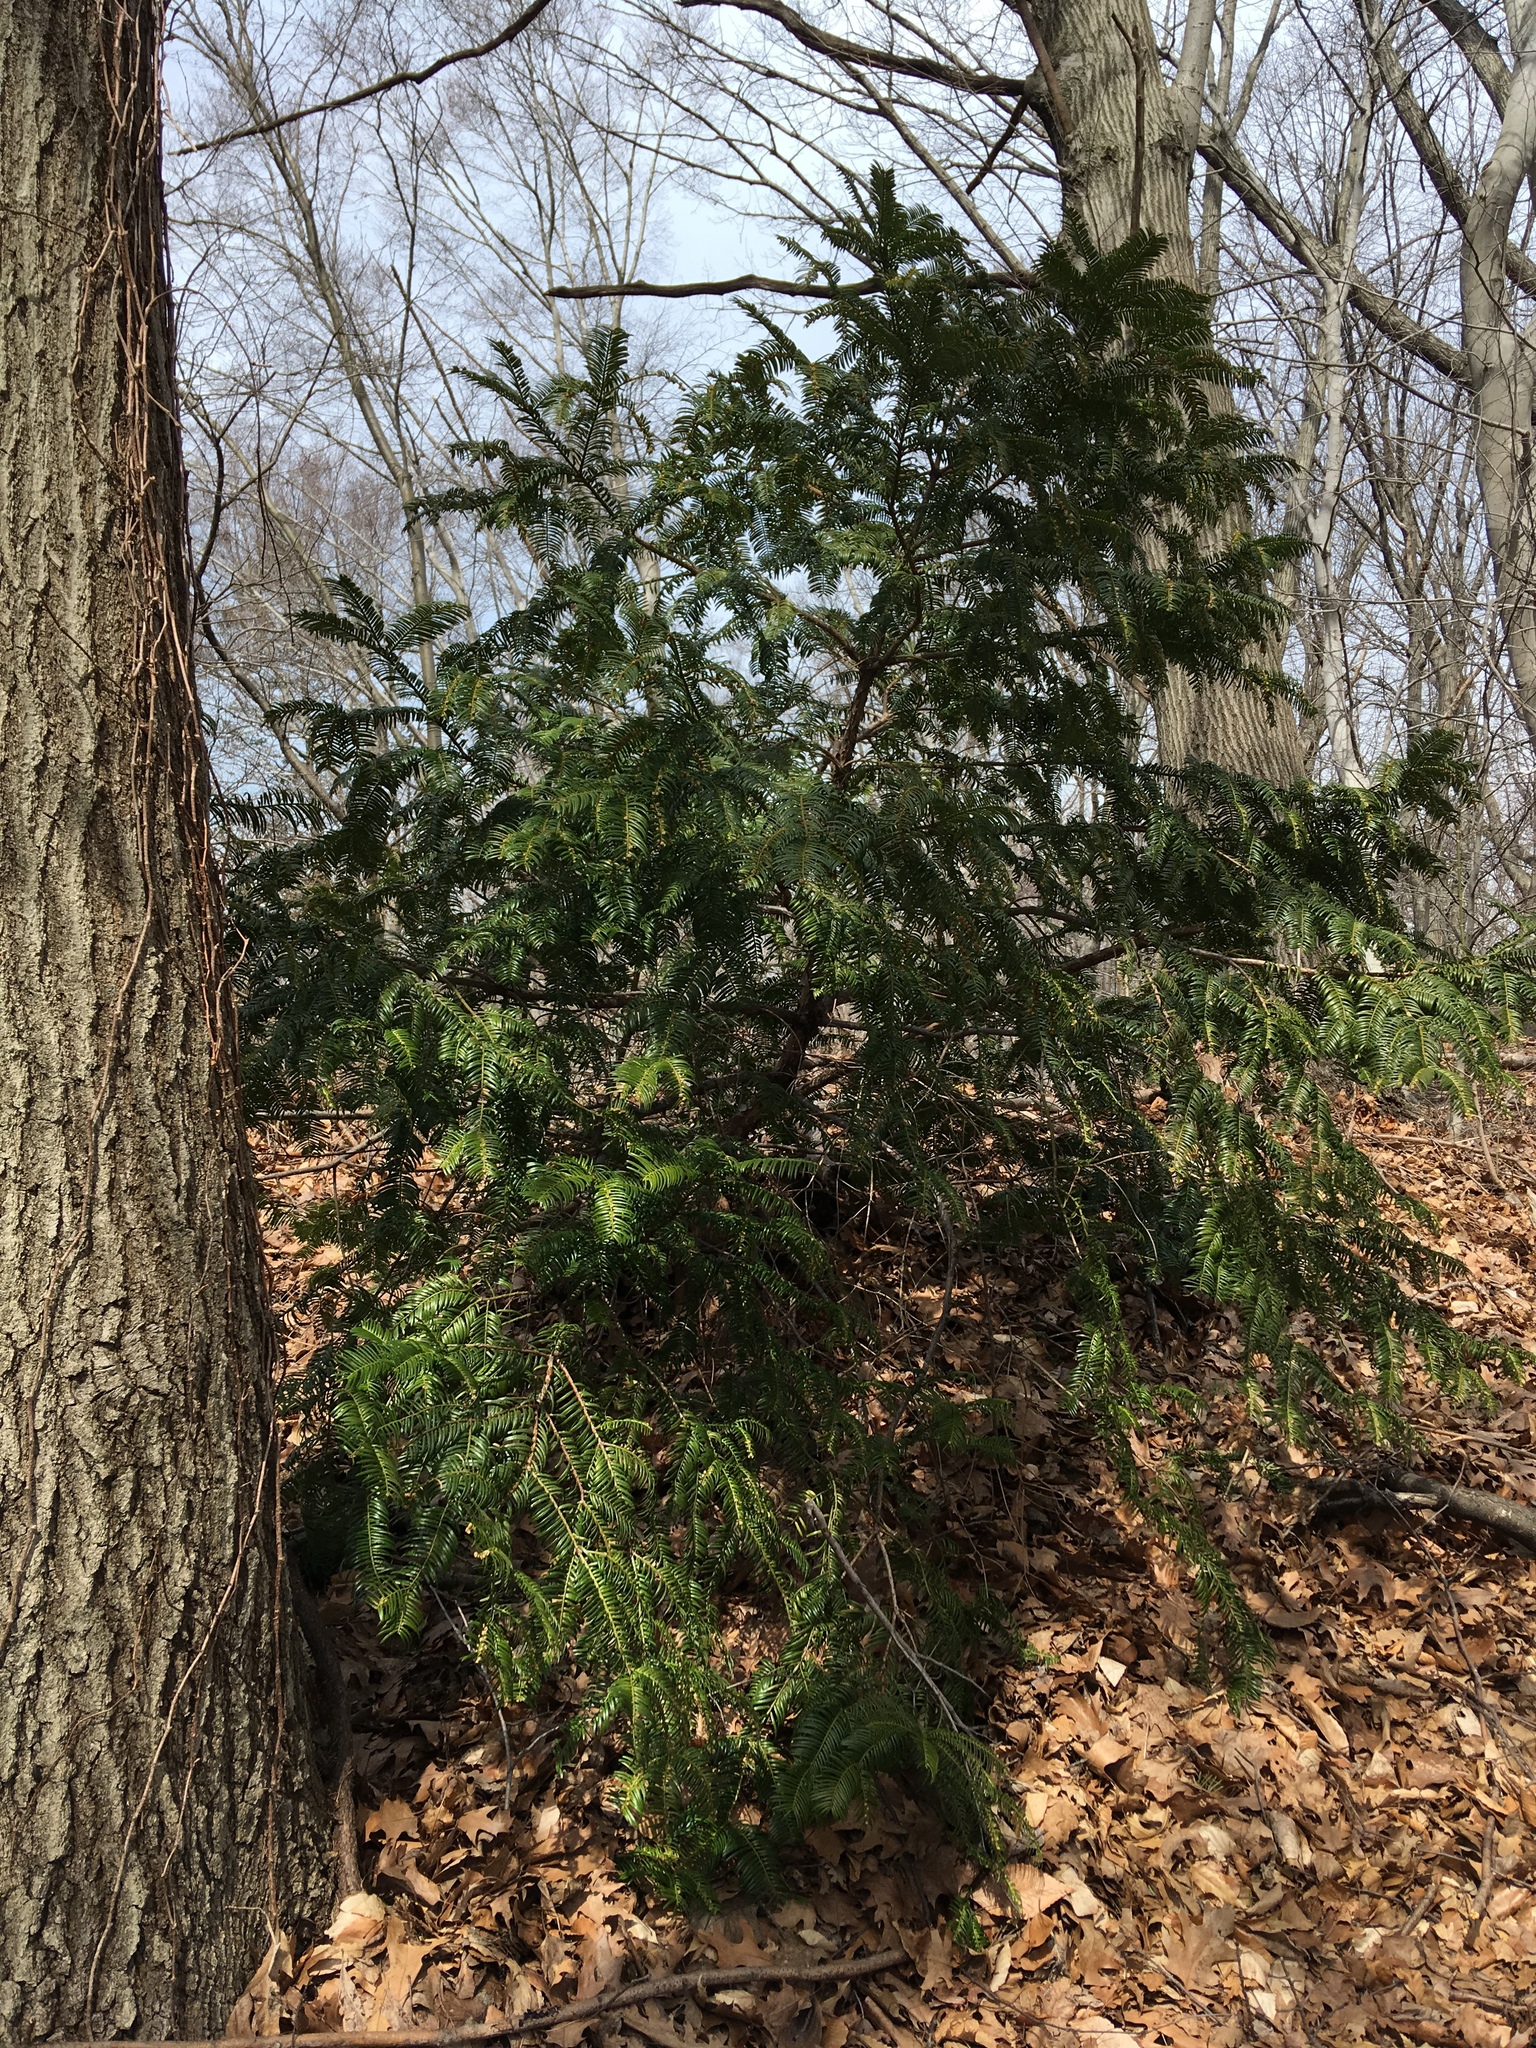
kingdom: Plantae
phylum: Tracheophyta
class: Pinopsida
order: Pinales
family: Cephalotaxaceae
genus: Cephalotaxus
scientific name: Cephalotaxus harringtonia
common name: Japanese plum-yew
